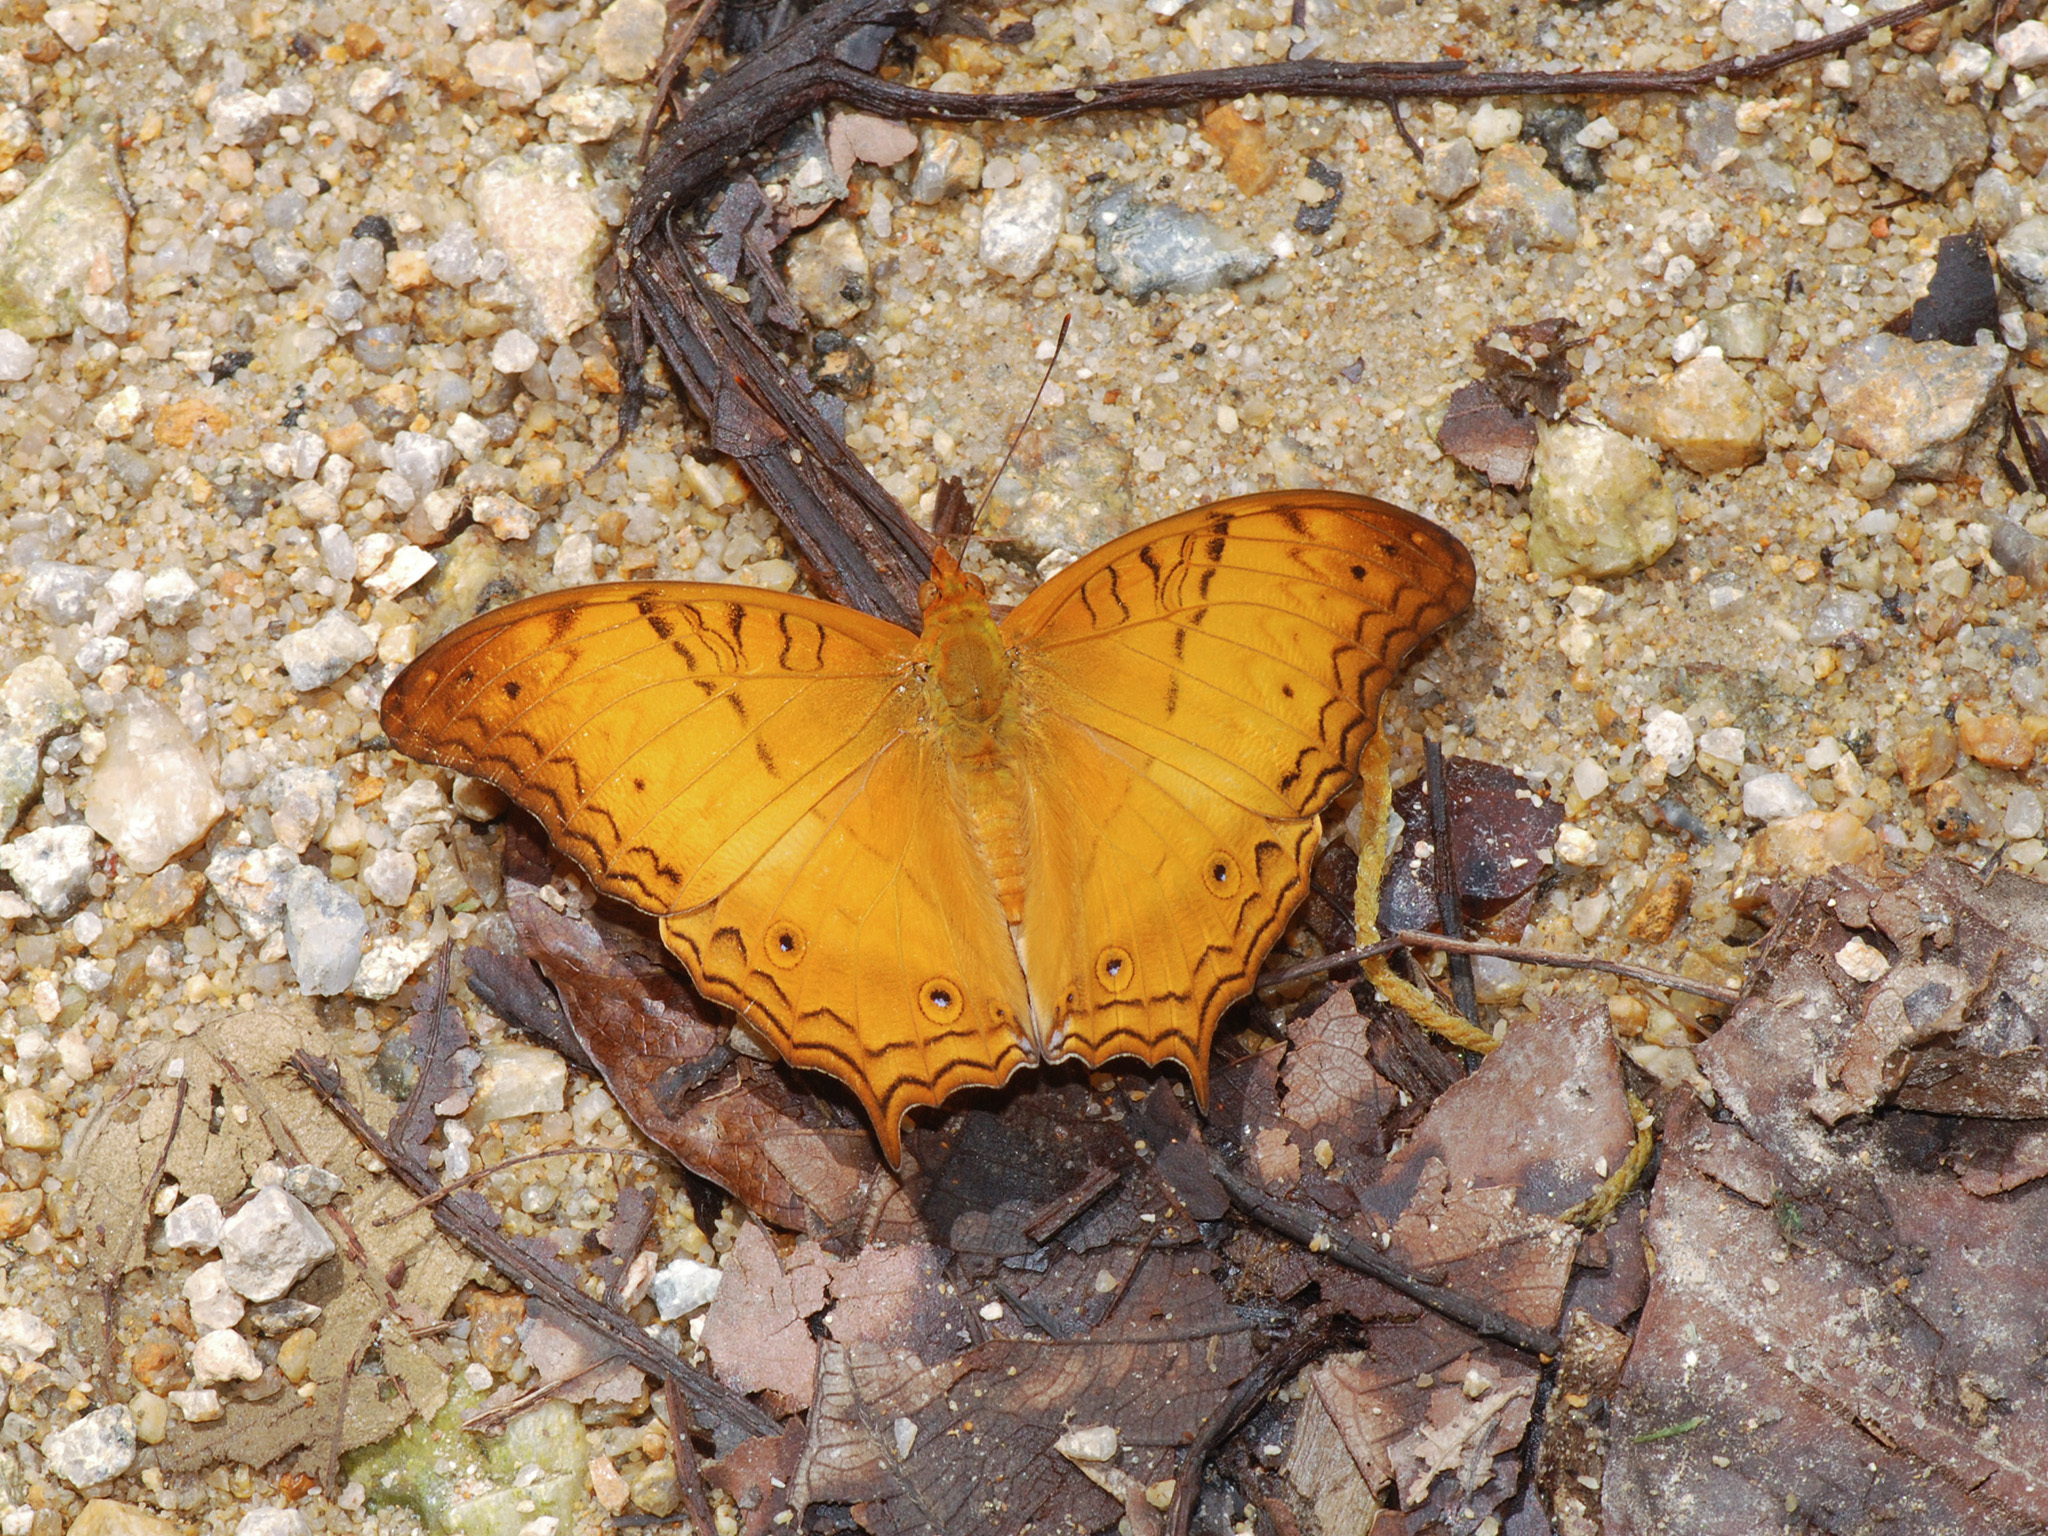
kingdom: Animalia
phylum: Arthropoda
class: Insecta
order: Lepidoptera
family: Nymphalidae
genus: Vindula
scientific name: Vindula deione
